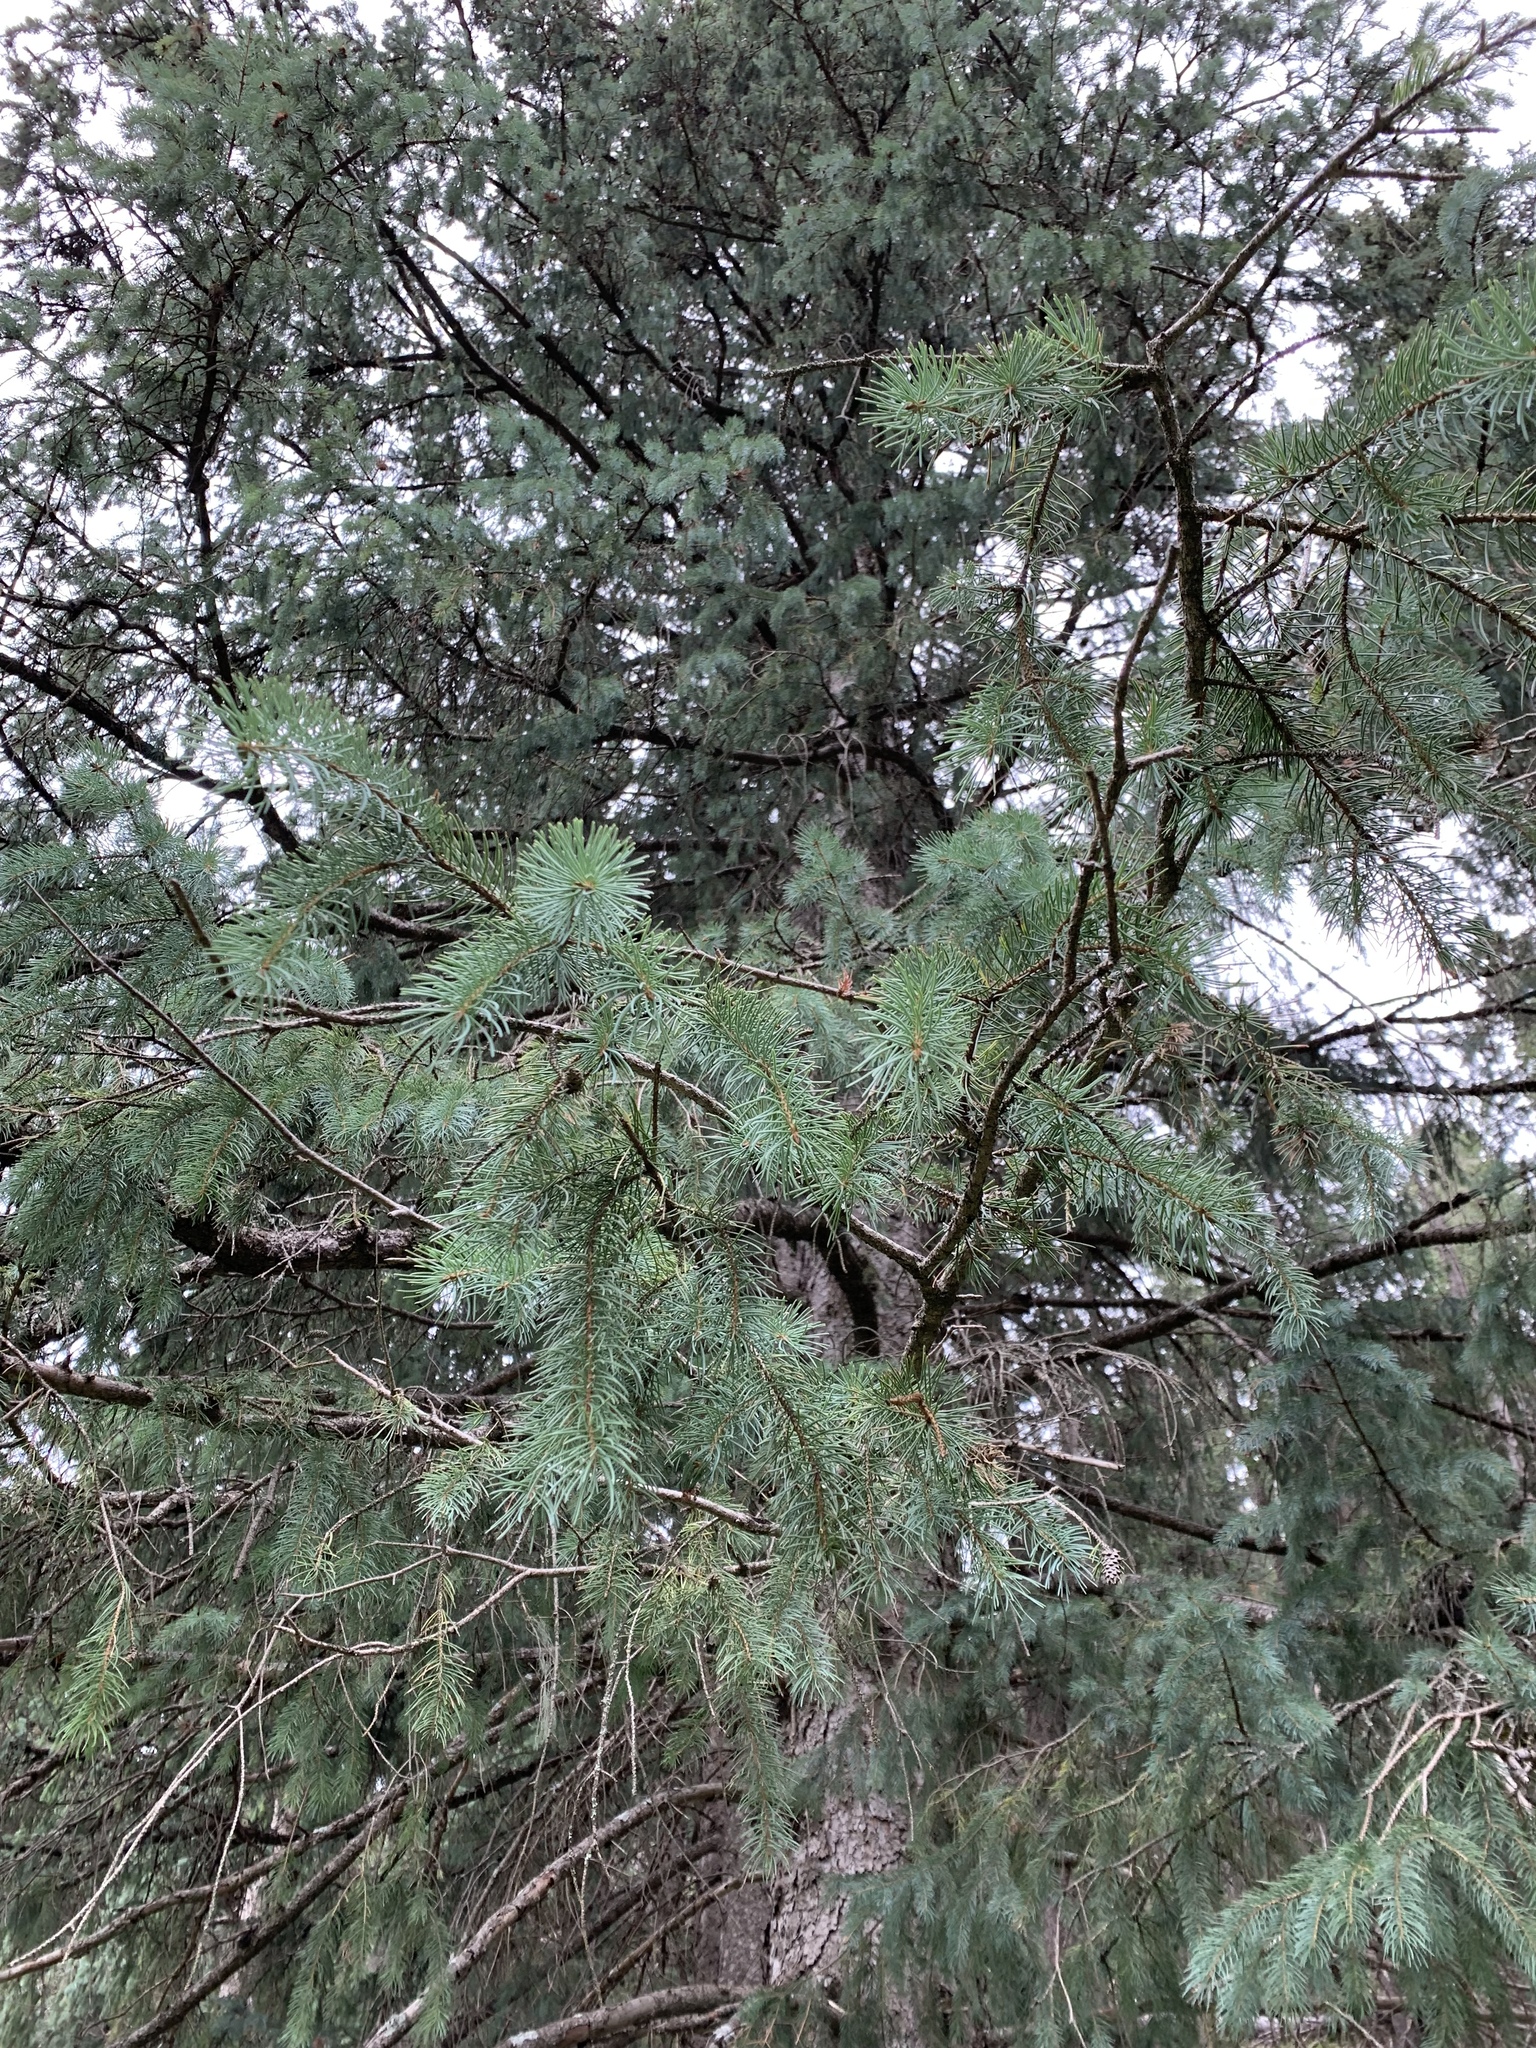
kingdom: Plantae
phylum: Tracheophyta
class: Pinopsida
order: Pinales
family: Pinaceae
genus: Picea
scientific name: Picea engelmannii
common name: Engelmann spruce
